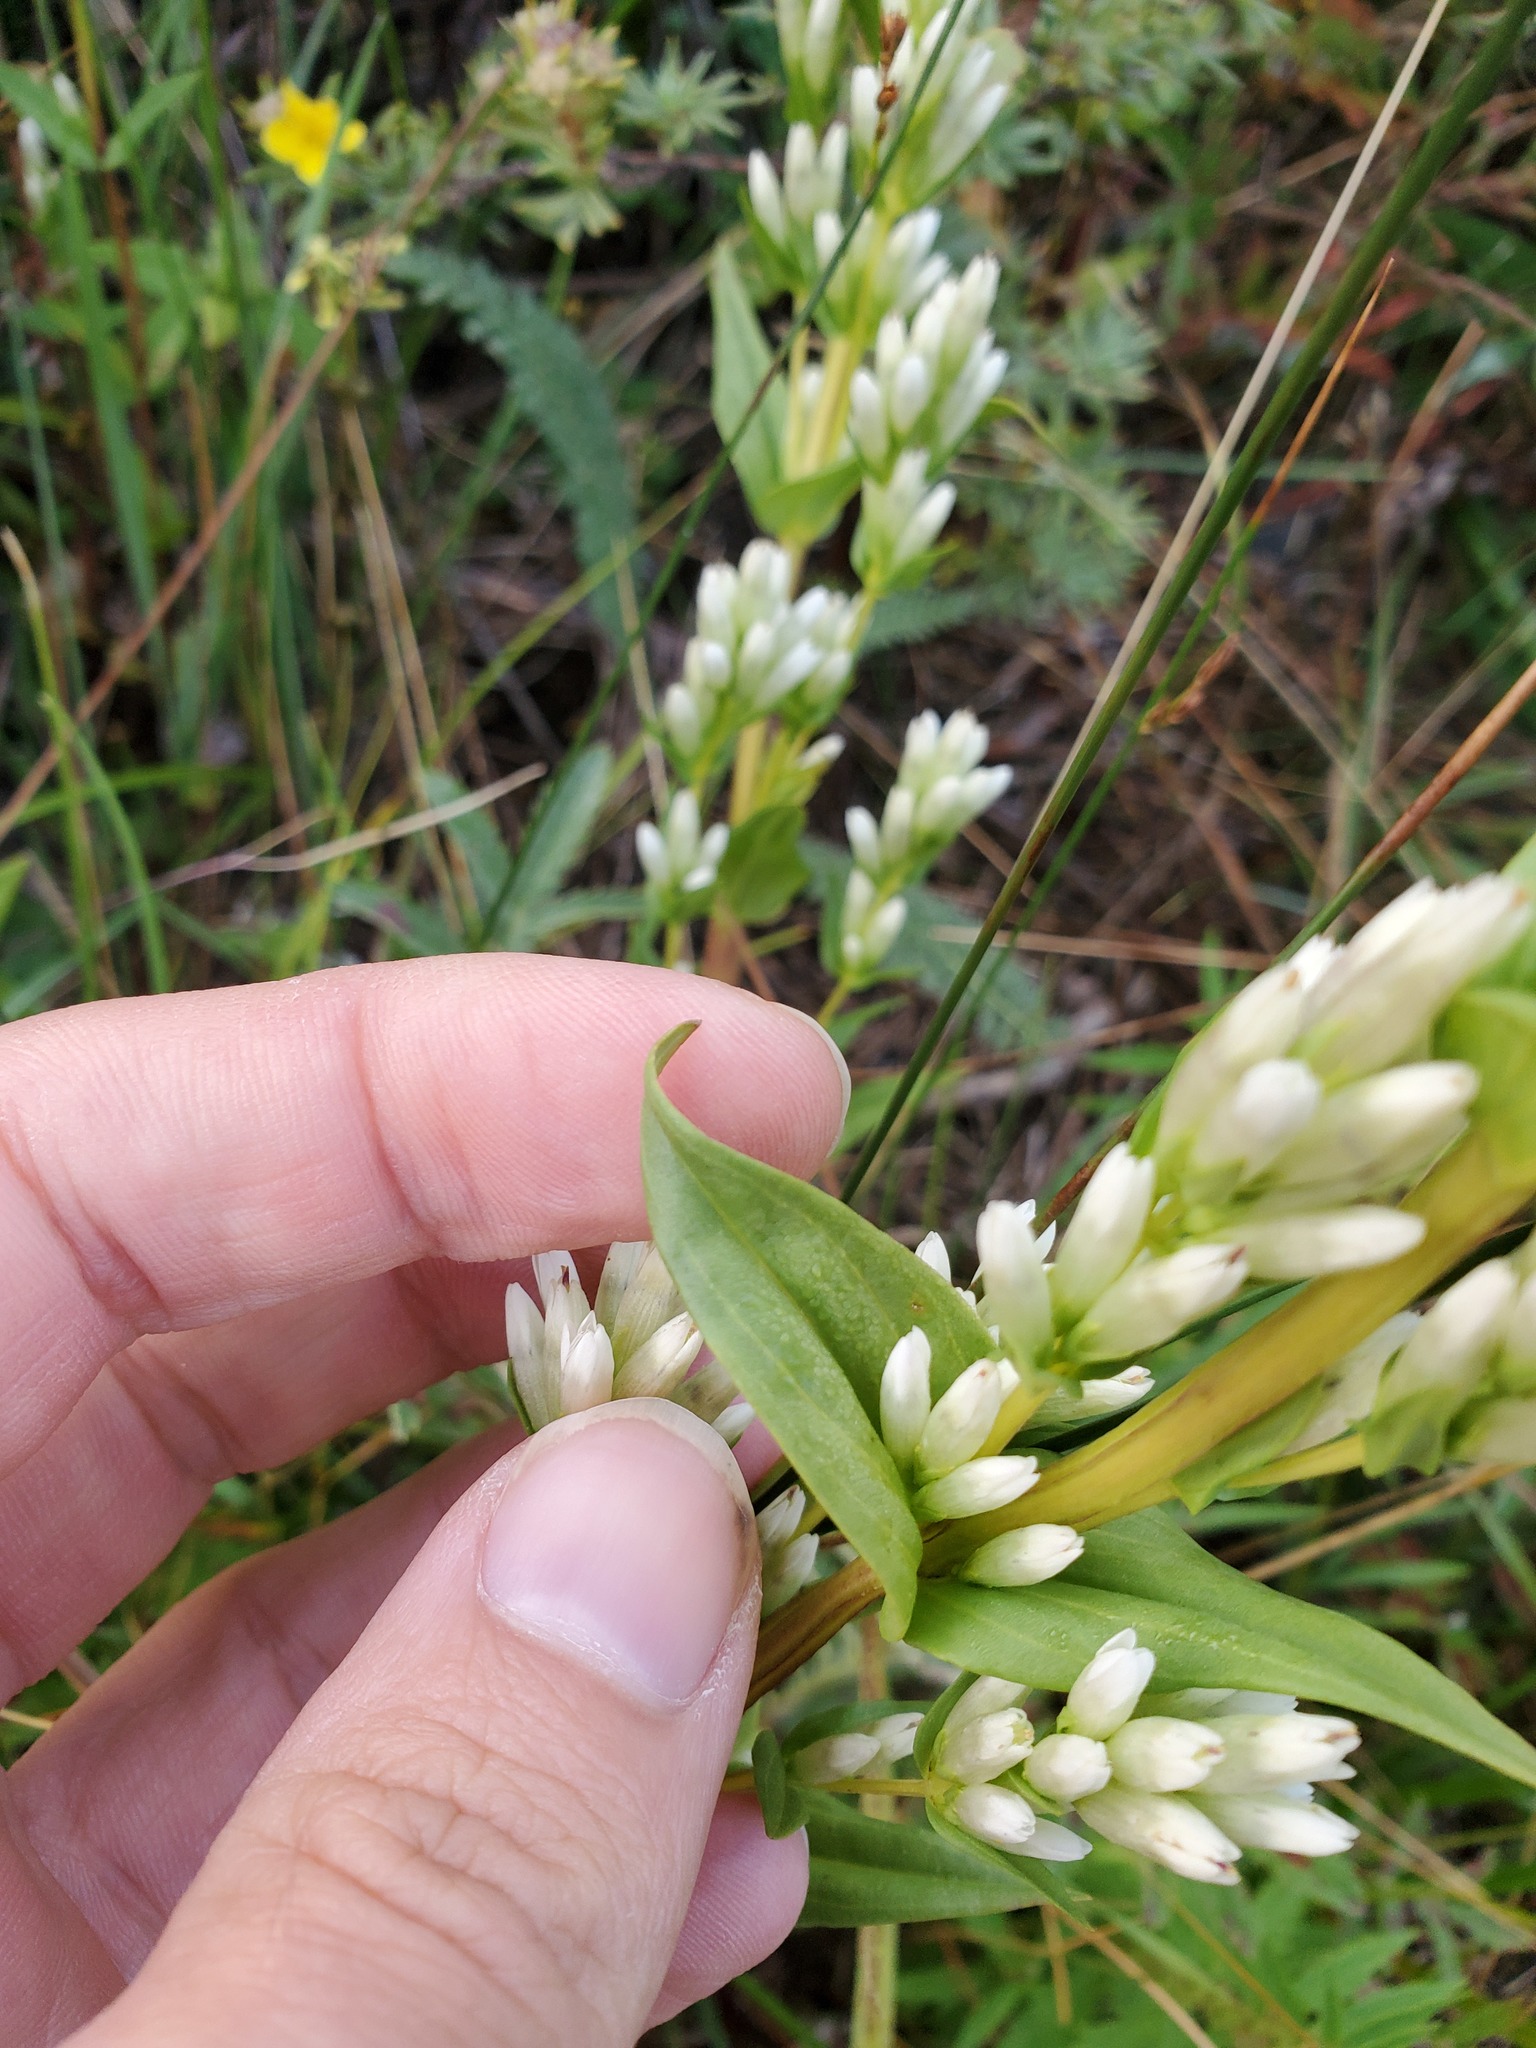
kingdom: Plantae
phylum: Tracheophyta
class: Magnoliopsida
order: Gentianales
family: Gentianaceae
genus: Gentianella
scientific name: Gentianella amarella
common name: Autumn gentian
